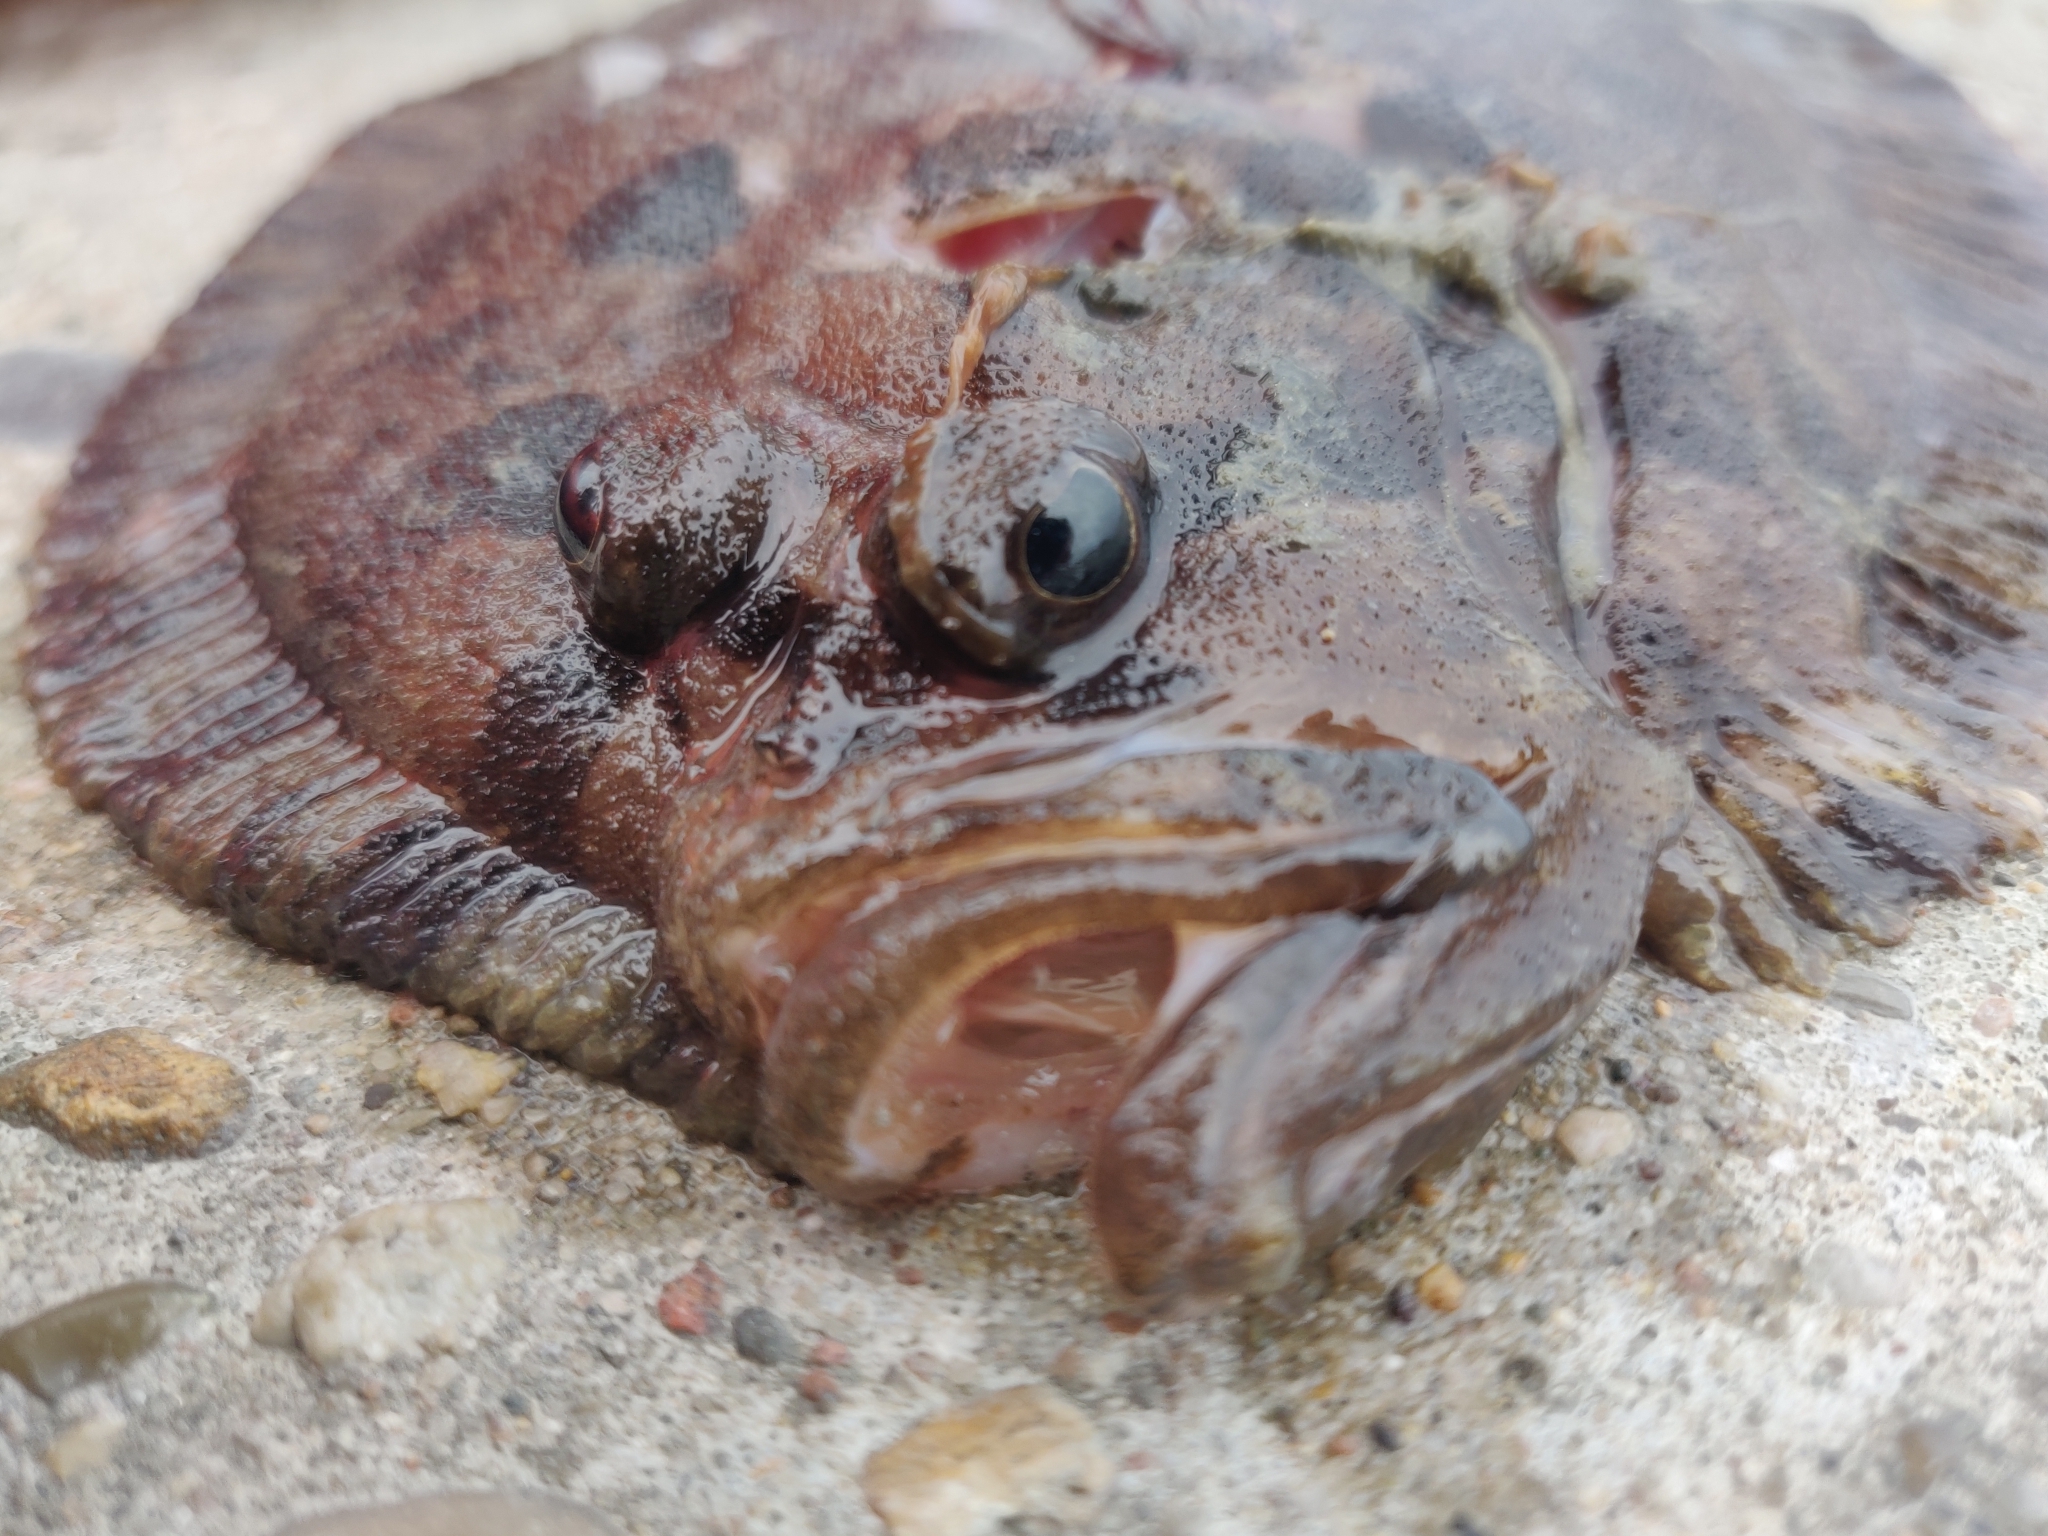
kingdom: Animalia
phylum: Chordata
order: Pleuronectiformes
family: Scophthalmidae
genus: Zeugopterus
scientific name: Zeugopterus punctatus
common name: Topknot
